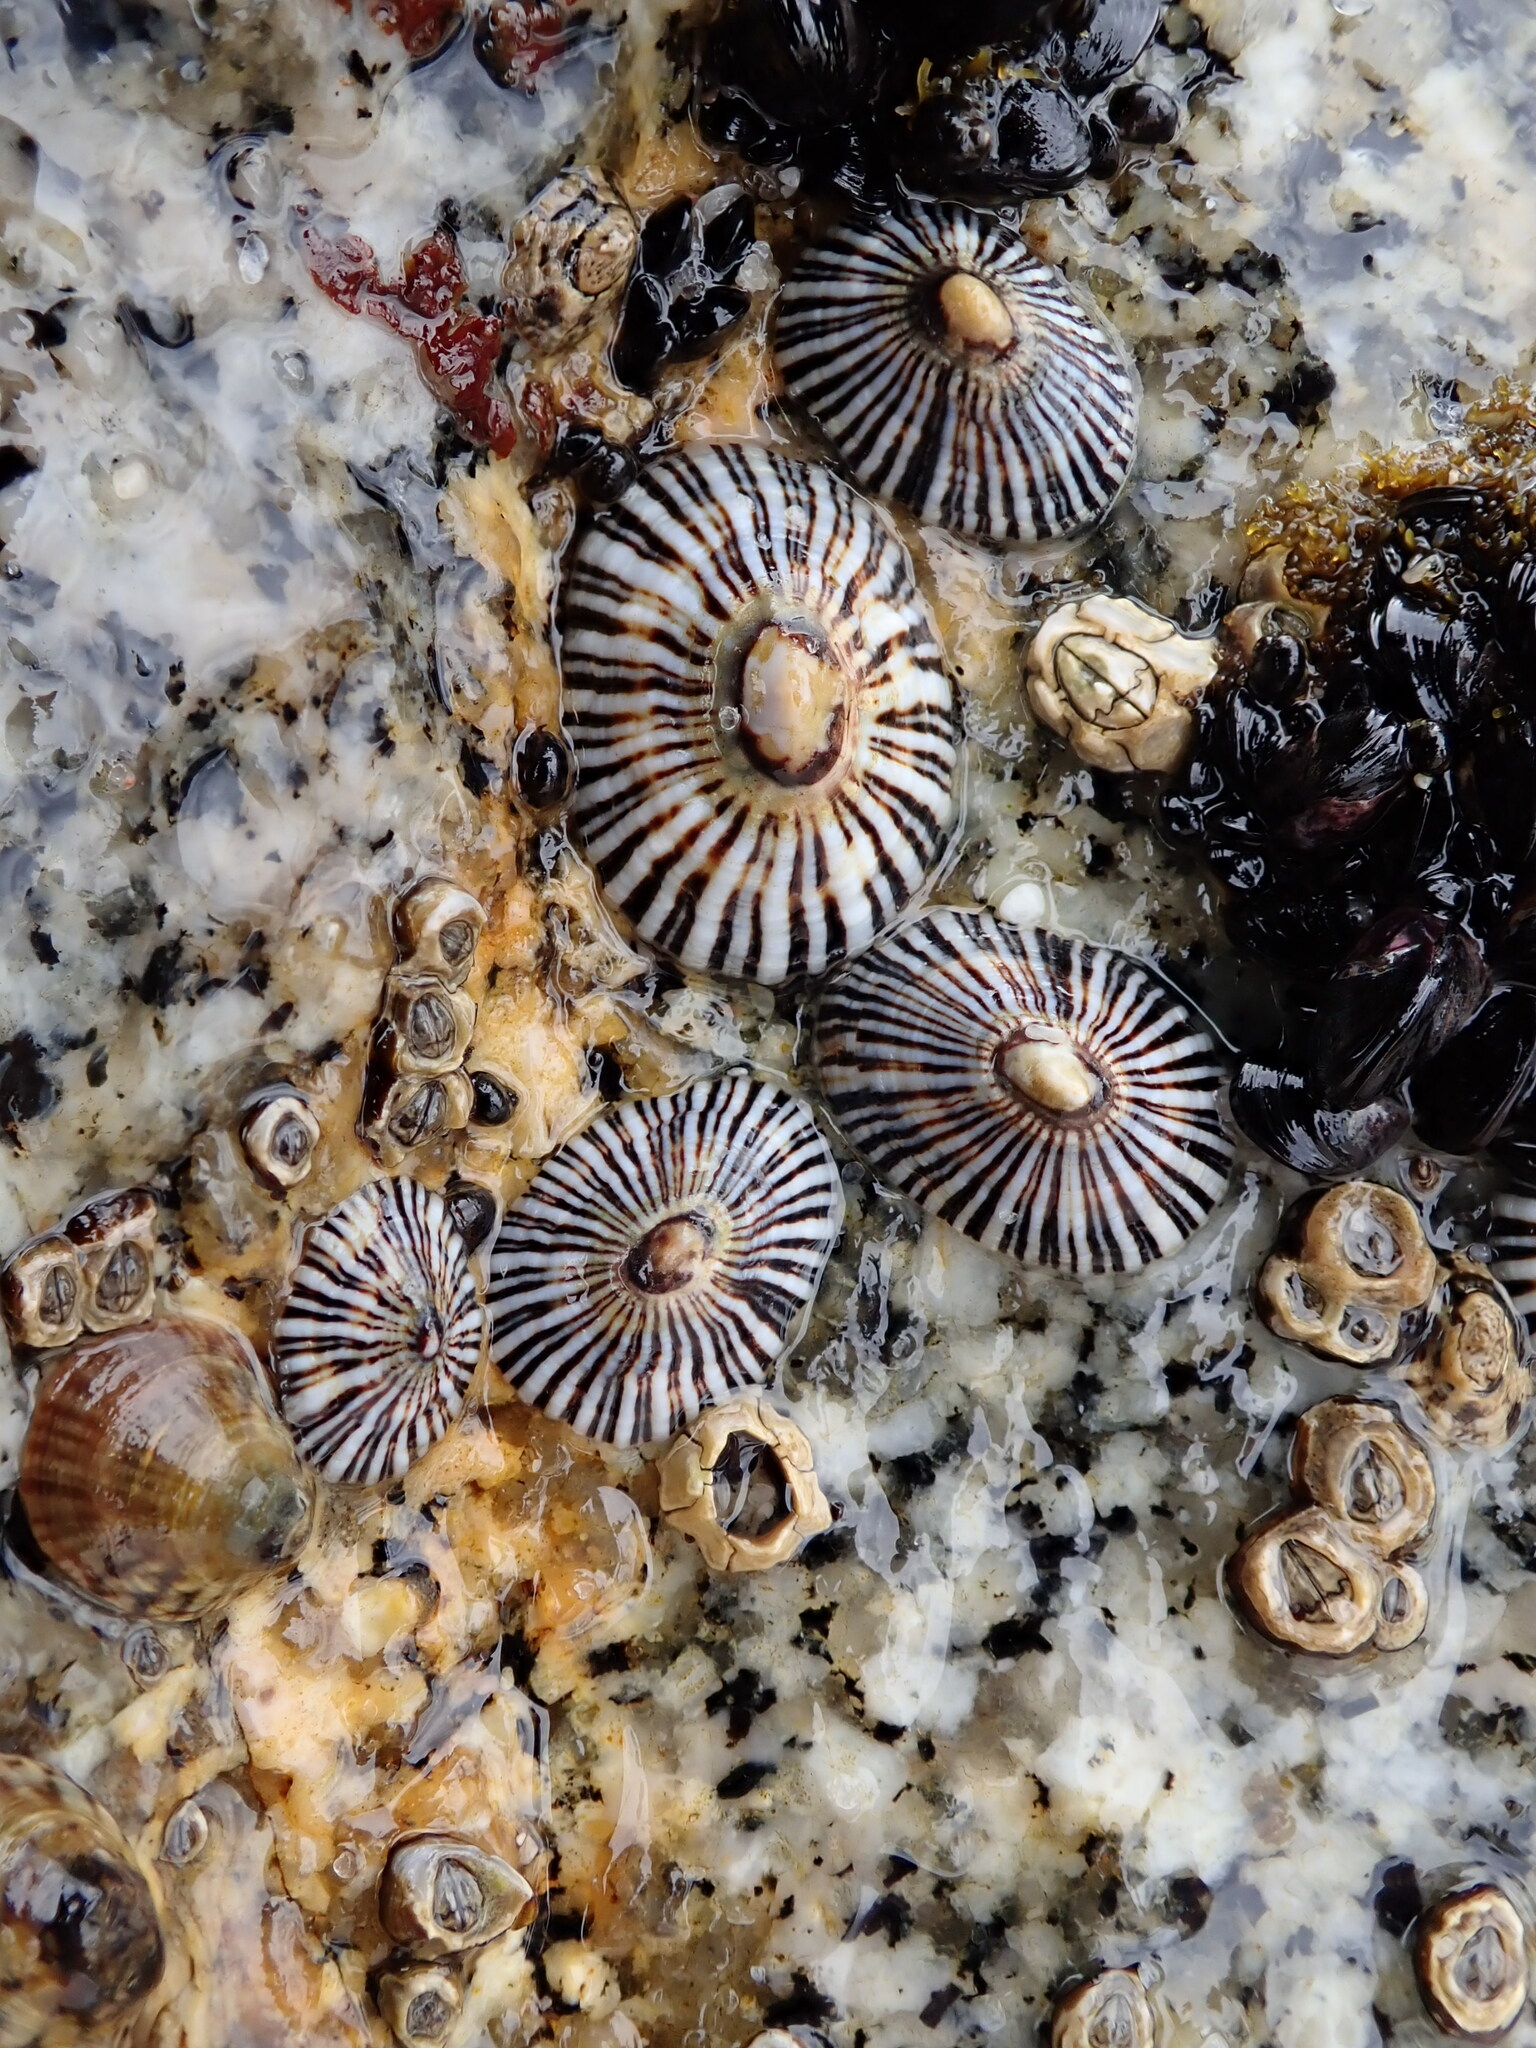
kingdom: Animalia
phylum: Mollusca
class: Gastropoda
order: Siphonariida
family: Siphonariidae
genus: Siphonaria
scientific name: Siphonaria funiculata
